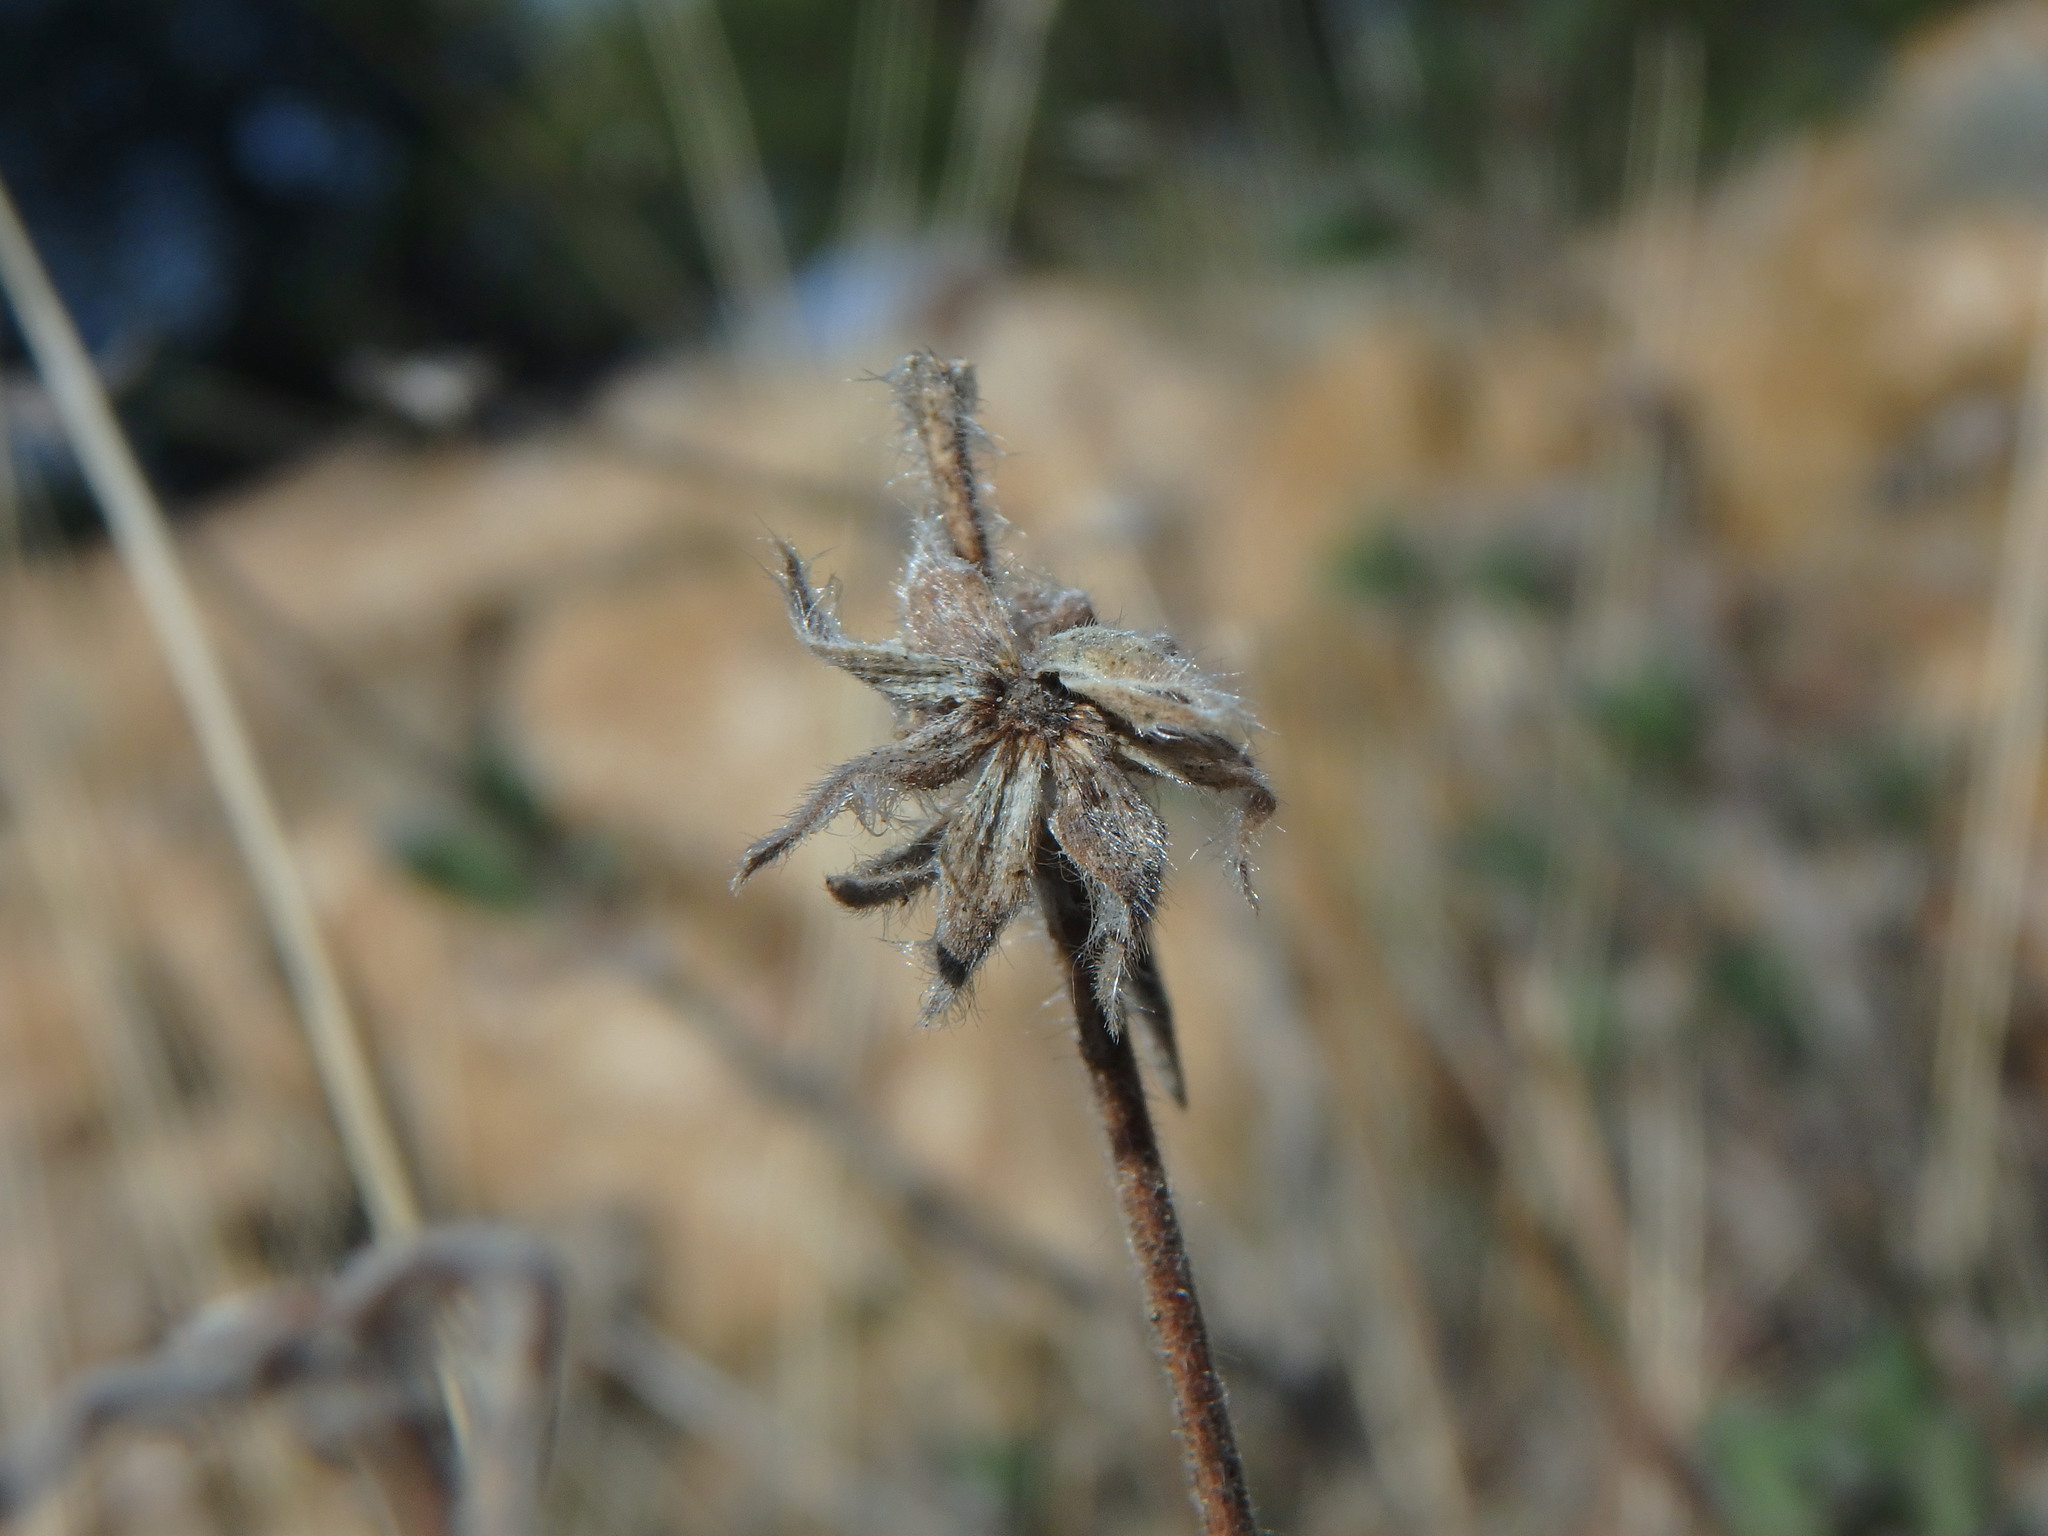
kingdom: Plantae
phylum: Tracheophyta
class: Magnoliopsida
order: Dipsacales
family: Caprifoliaceae
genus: Pterocephalus
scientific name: Pterocephalus multiflorus
